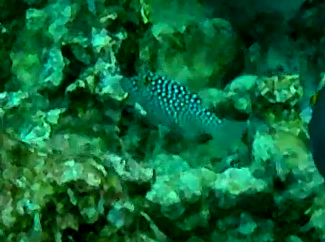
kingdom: Animalia
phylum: Chordata
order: Tetraodontiformes
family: Tetraodontidae
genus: Canthigaster
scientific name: Canthigaster jactator
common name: Hawaiian whitespotted toby
